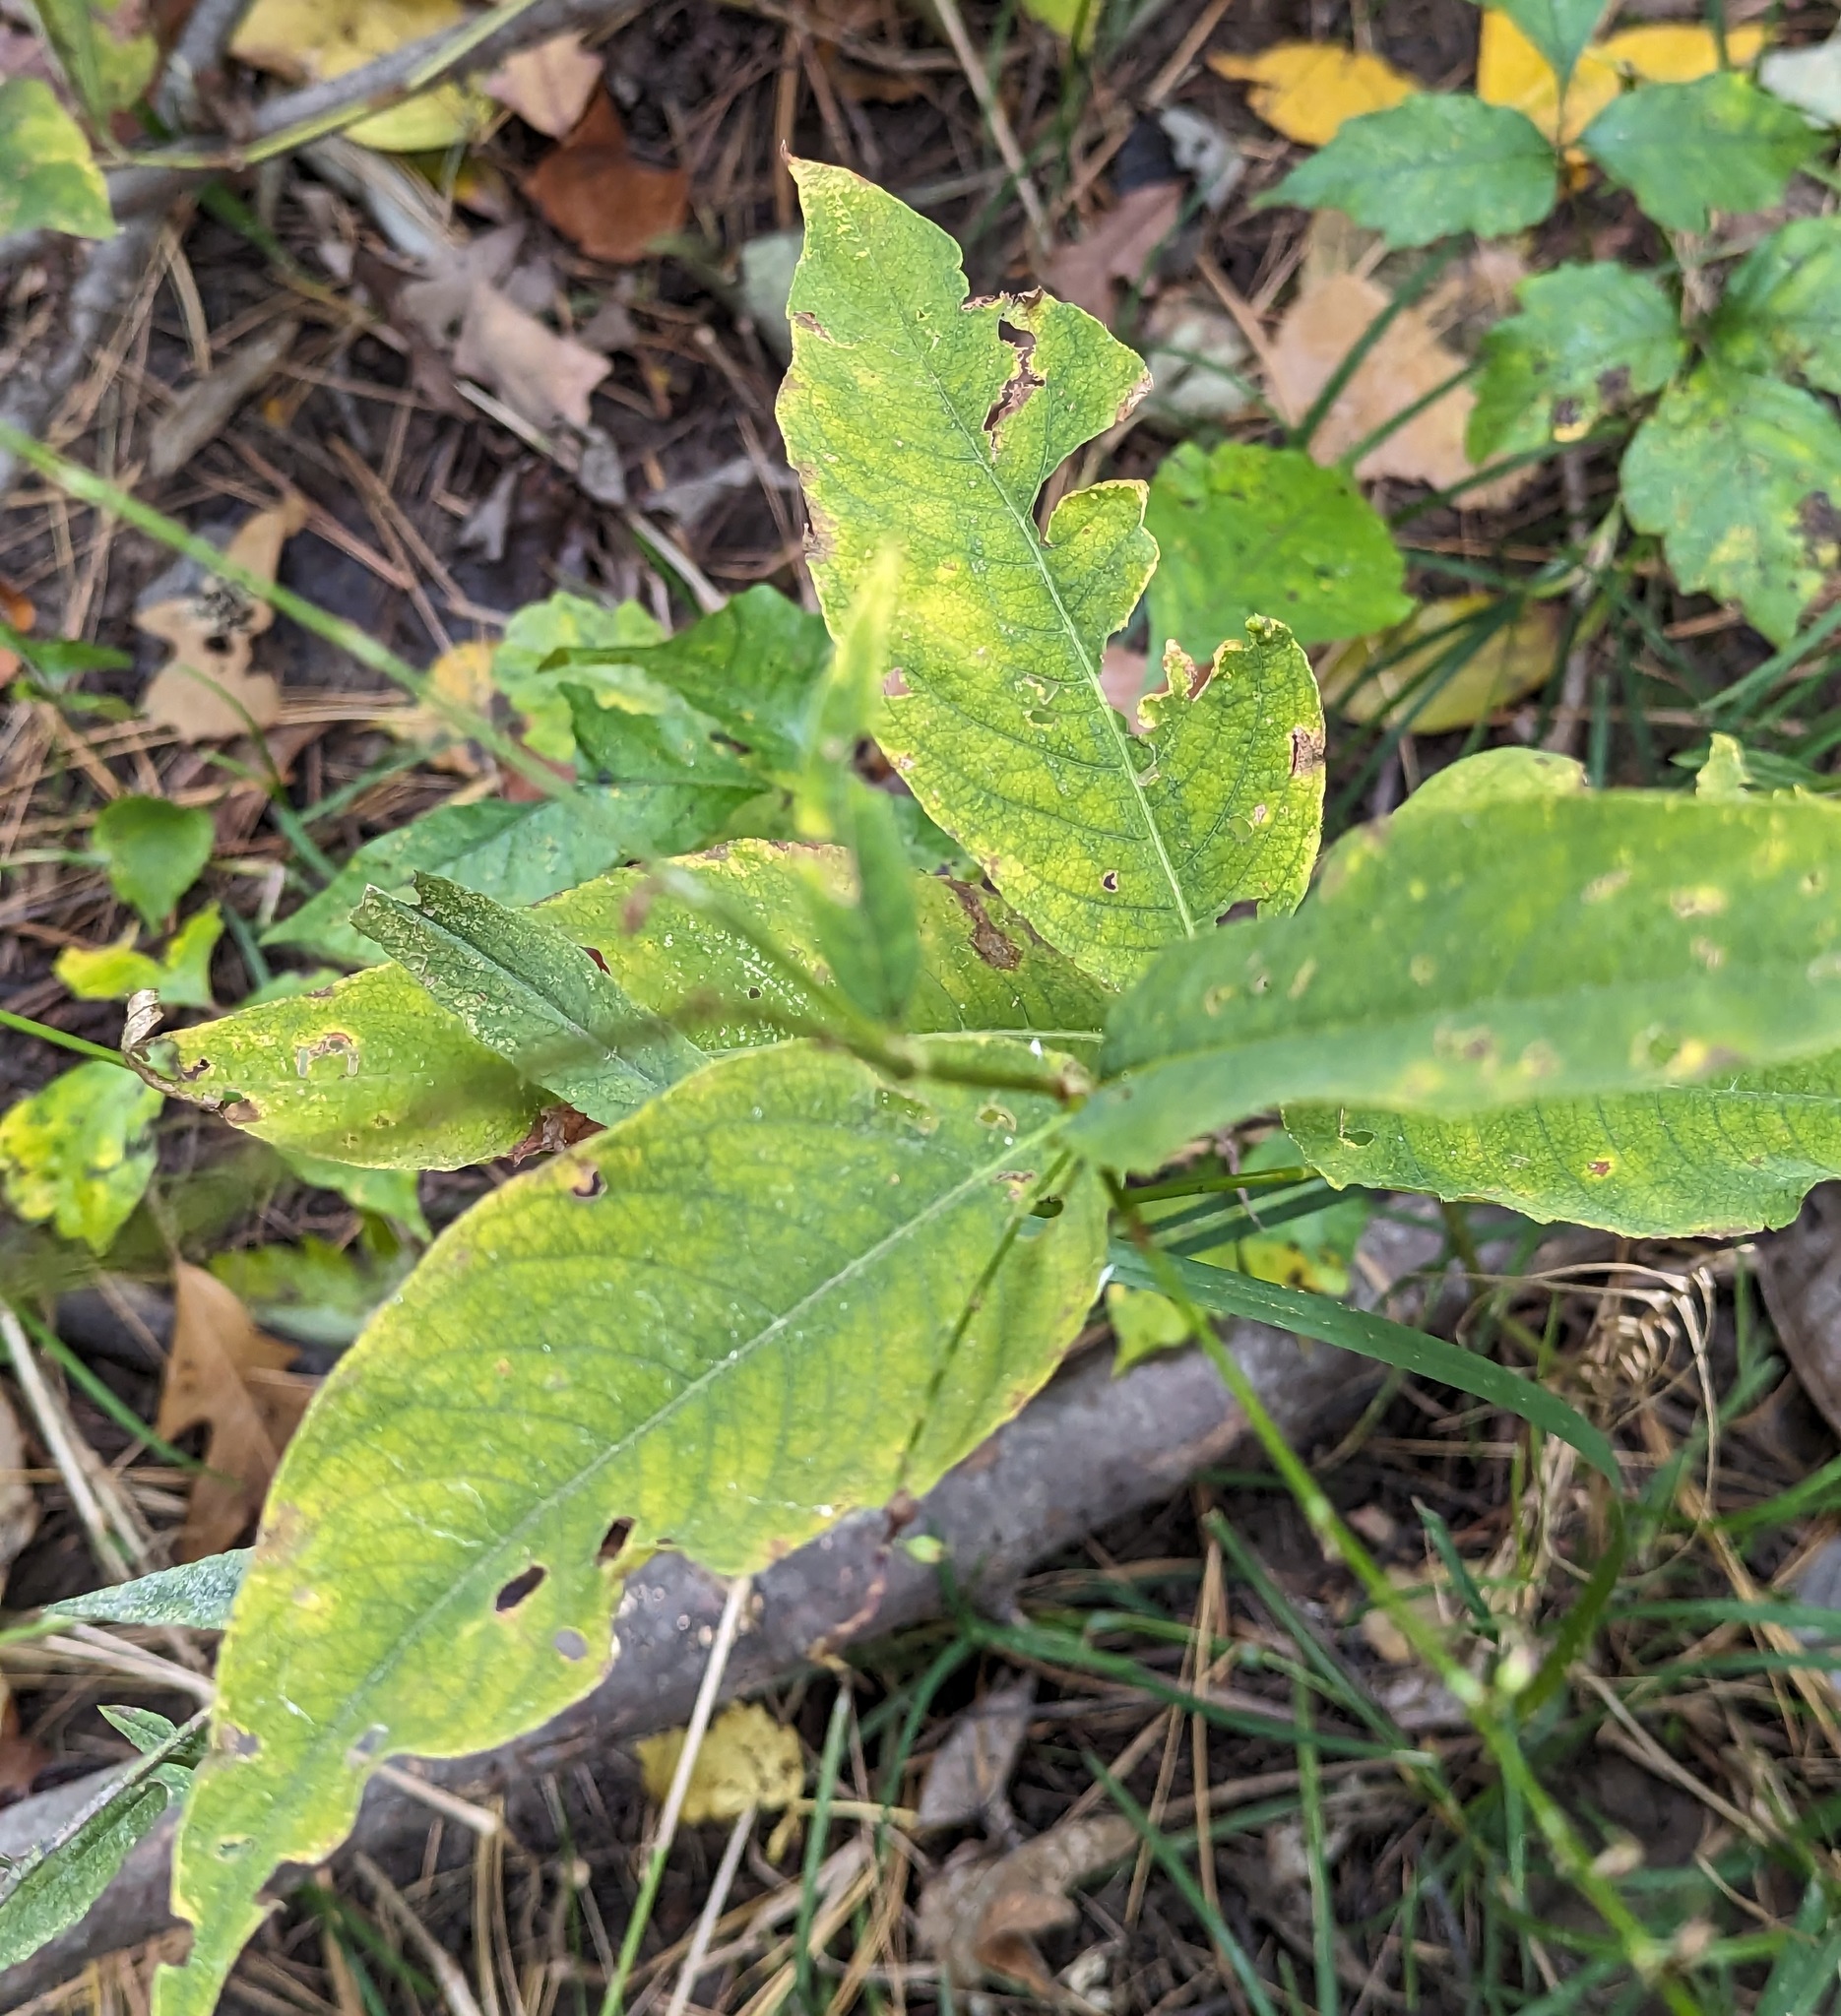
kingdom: Plantae
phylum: Tracheophyta
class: Magnoliopsida
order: Caryophyllales
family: Polygonaceae
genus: Persicaria
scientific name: Persicaria virginiana
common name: Jumpseed
